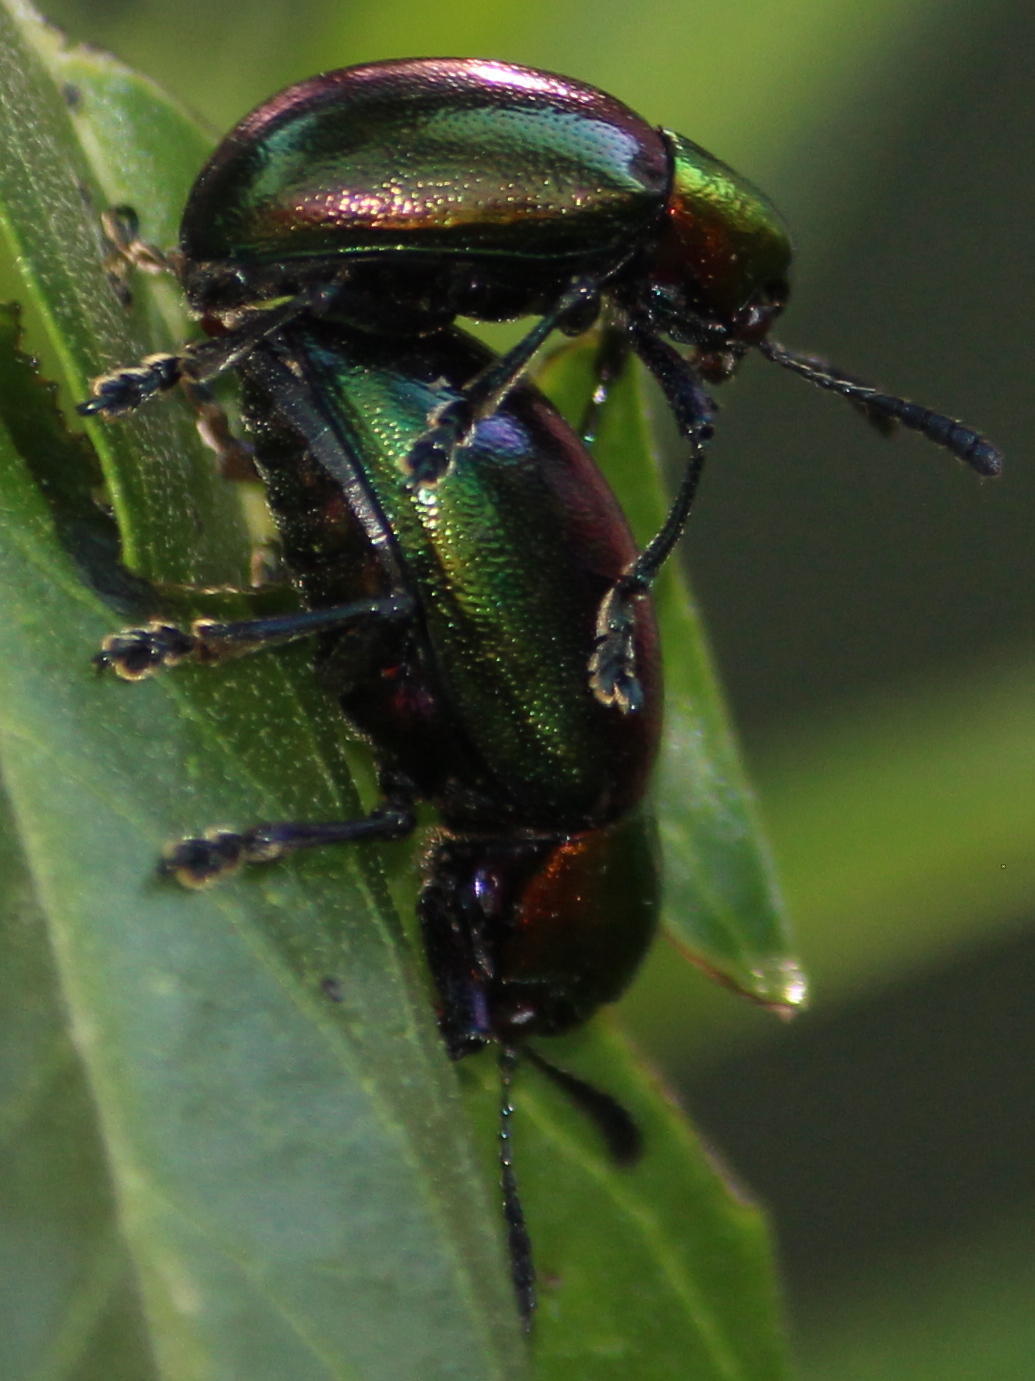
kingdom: Plantae
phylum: Tracheophyta
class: Magnoliopsida
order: Gentianales
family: Apocynaceae
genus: Gomphocarpus
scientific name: Gomphocarpus physocarpus
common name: Balloon cotton bush
